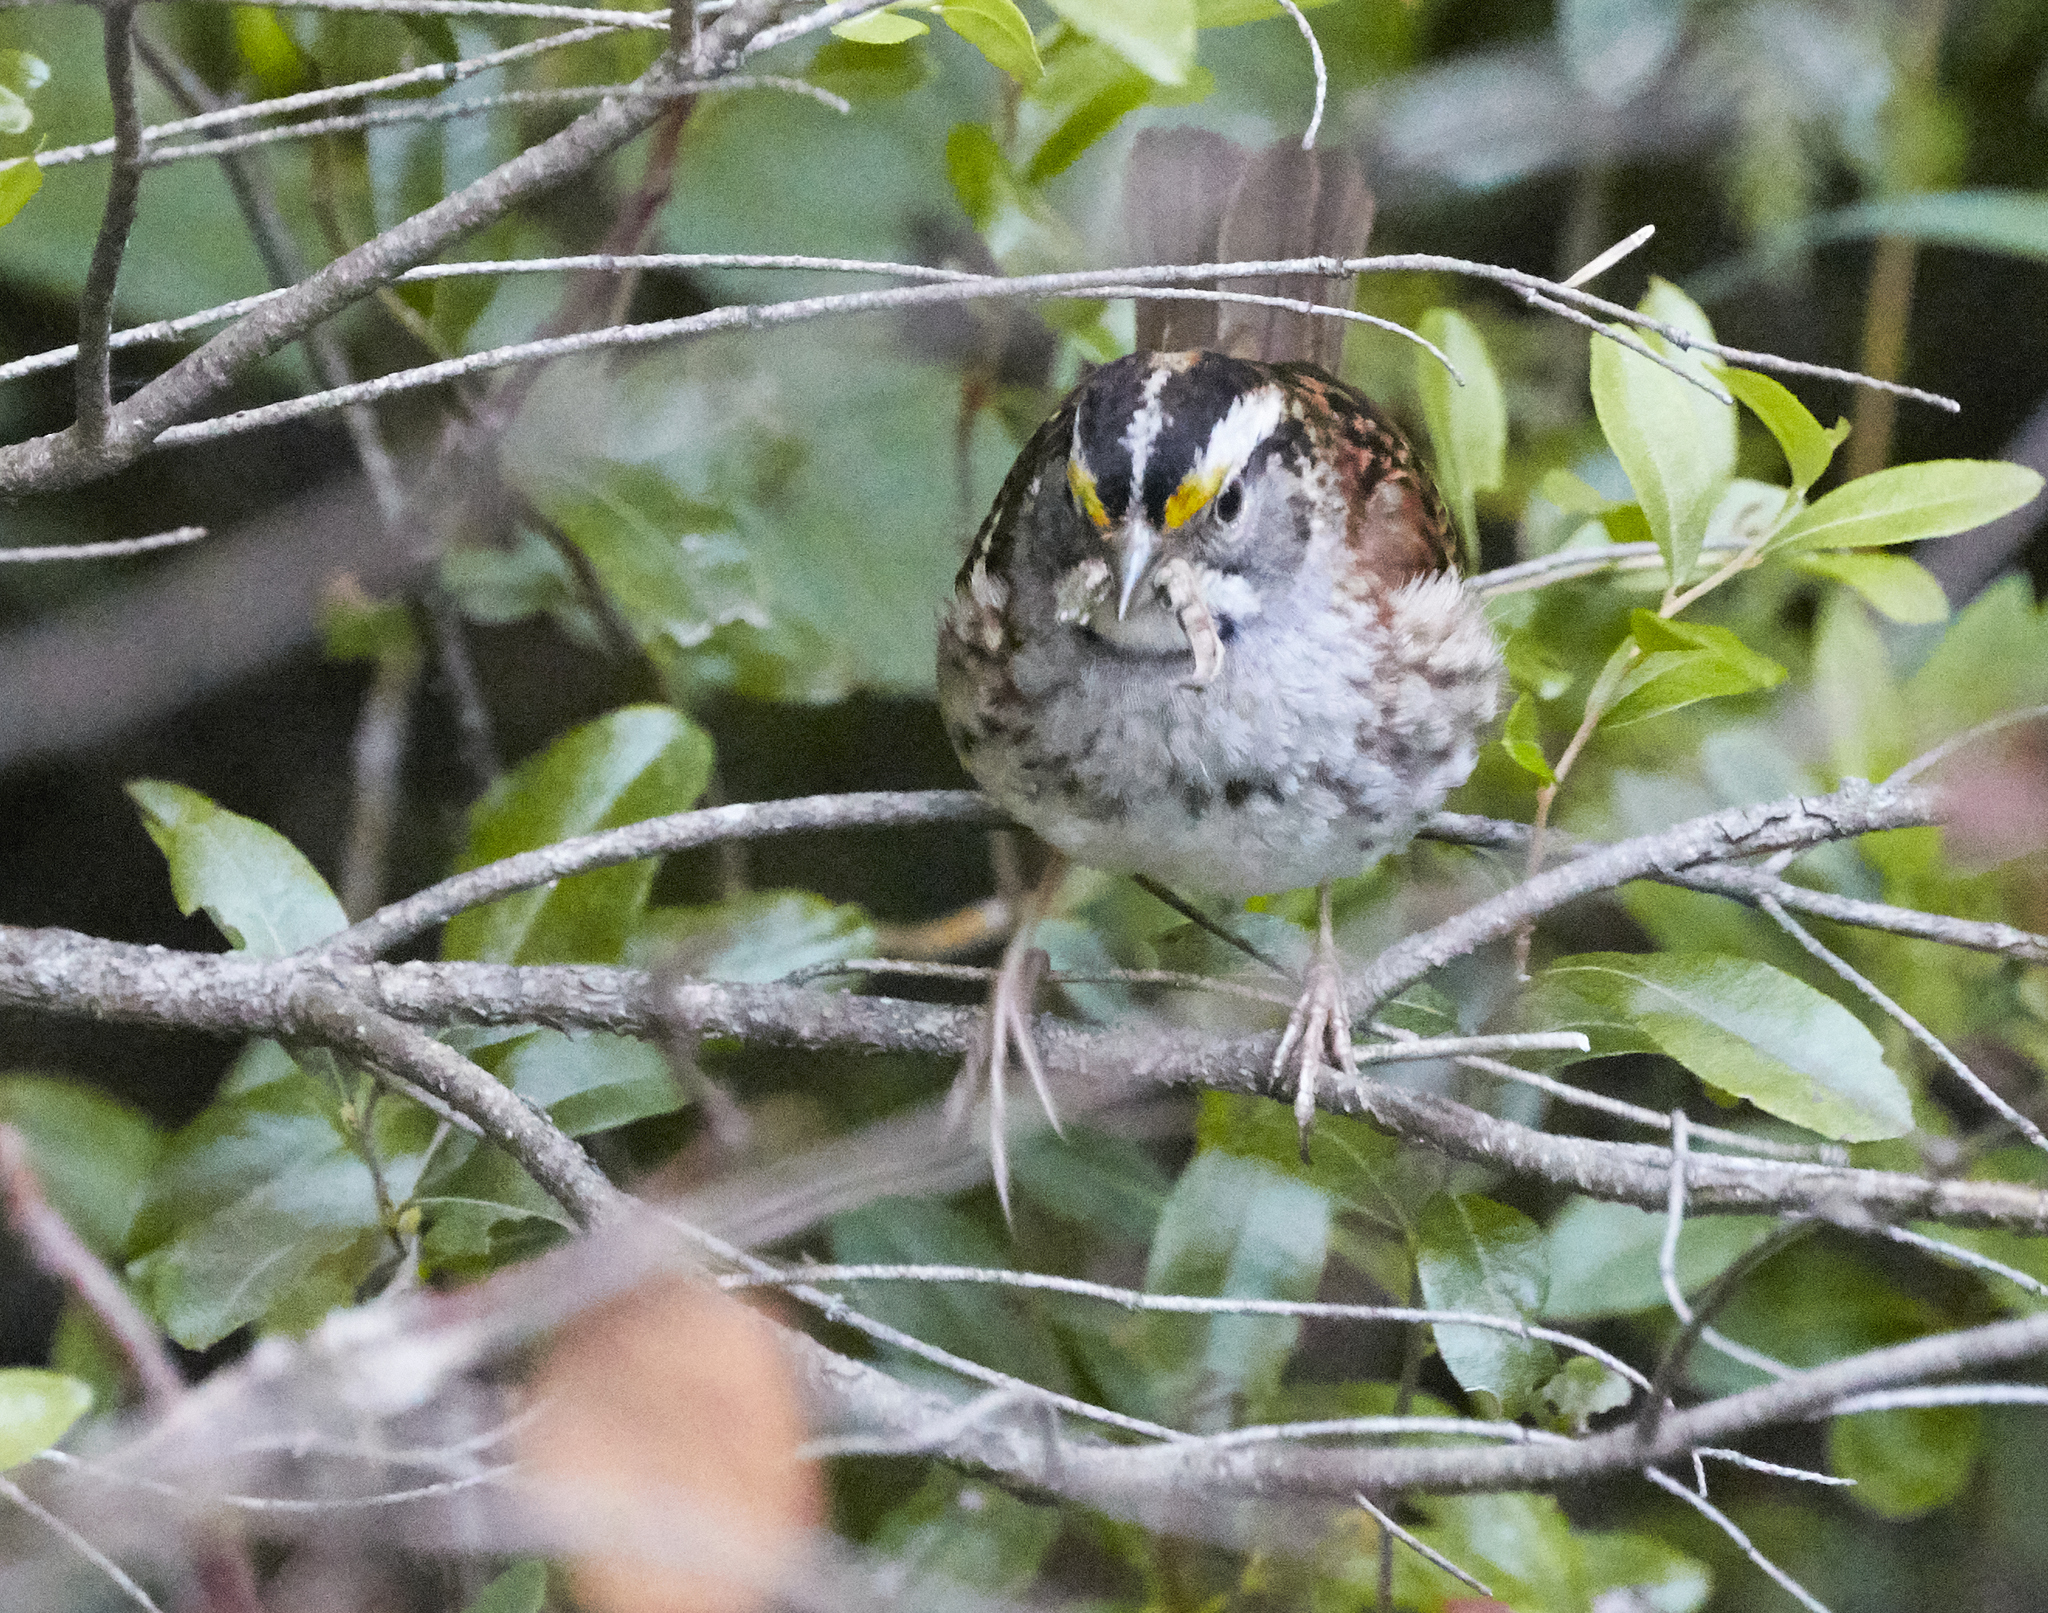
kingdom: Animalia
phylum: Chordata
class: Aves
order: Passeriformes
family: Passerellidae
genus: Zonotrichia
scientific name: Zonotrichia albicollis
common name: White-throated sparrow
